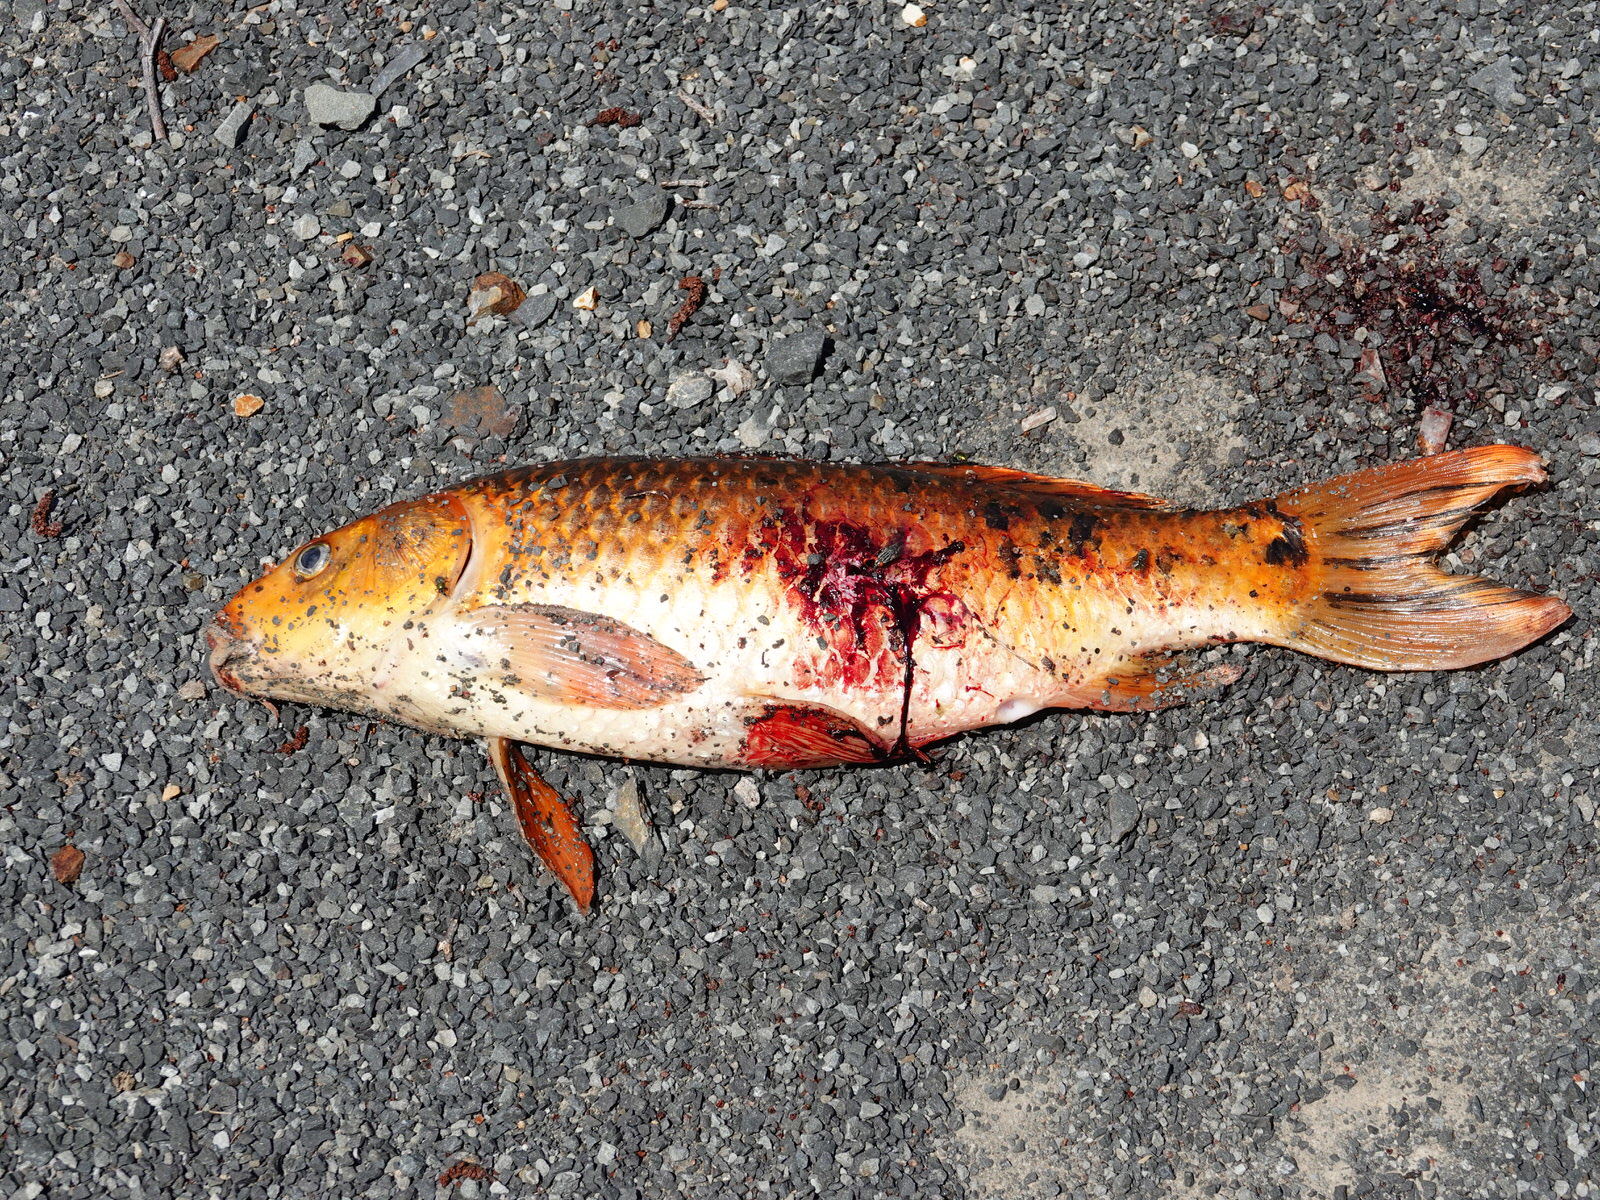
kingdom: Animalia
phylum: Chordata
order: Cypriniformes
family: Cyprinidae
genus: Cyprinus
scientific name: Cyprinus rubrofuscus
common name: Koi
